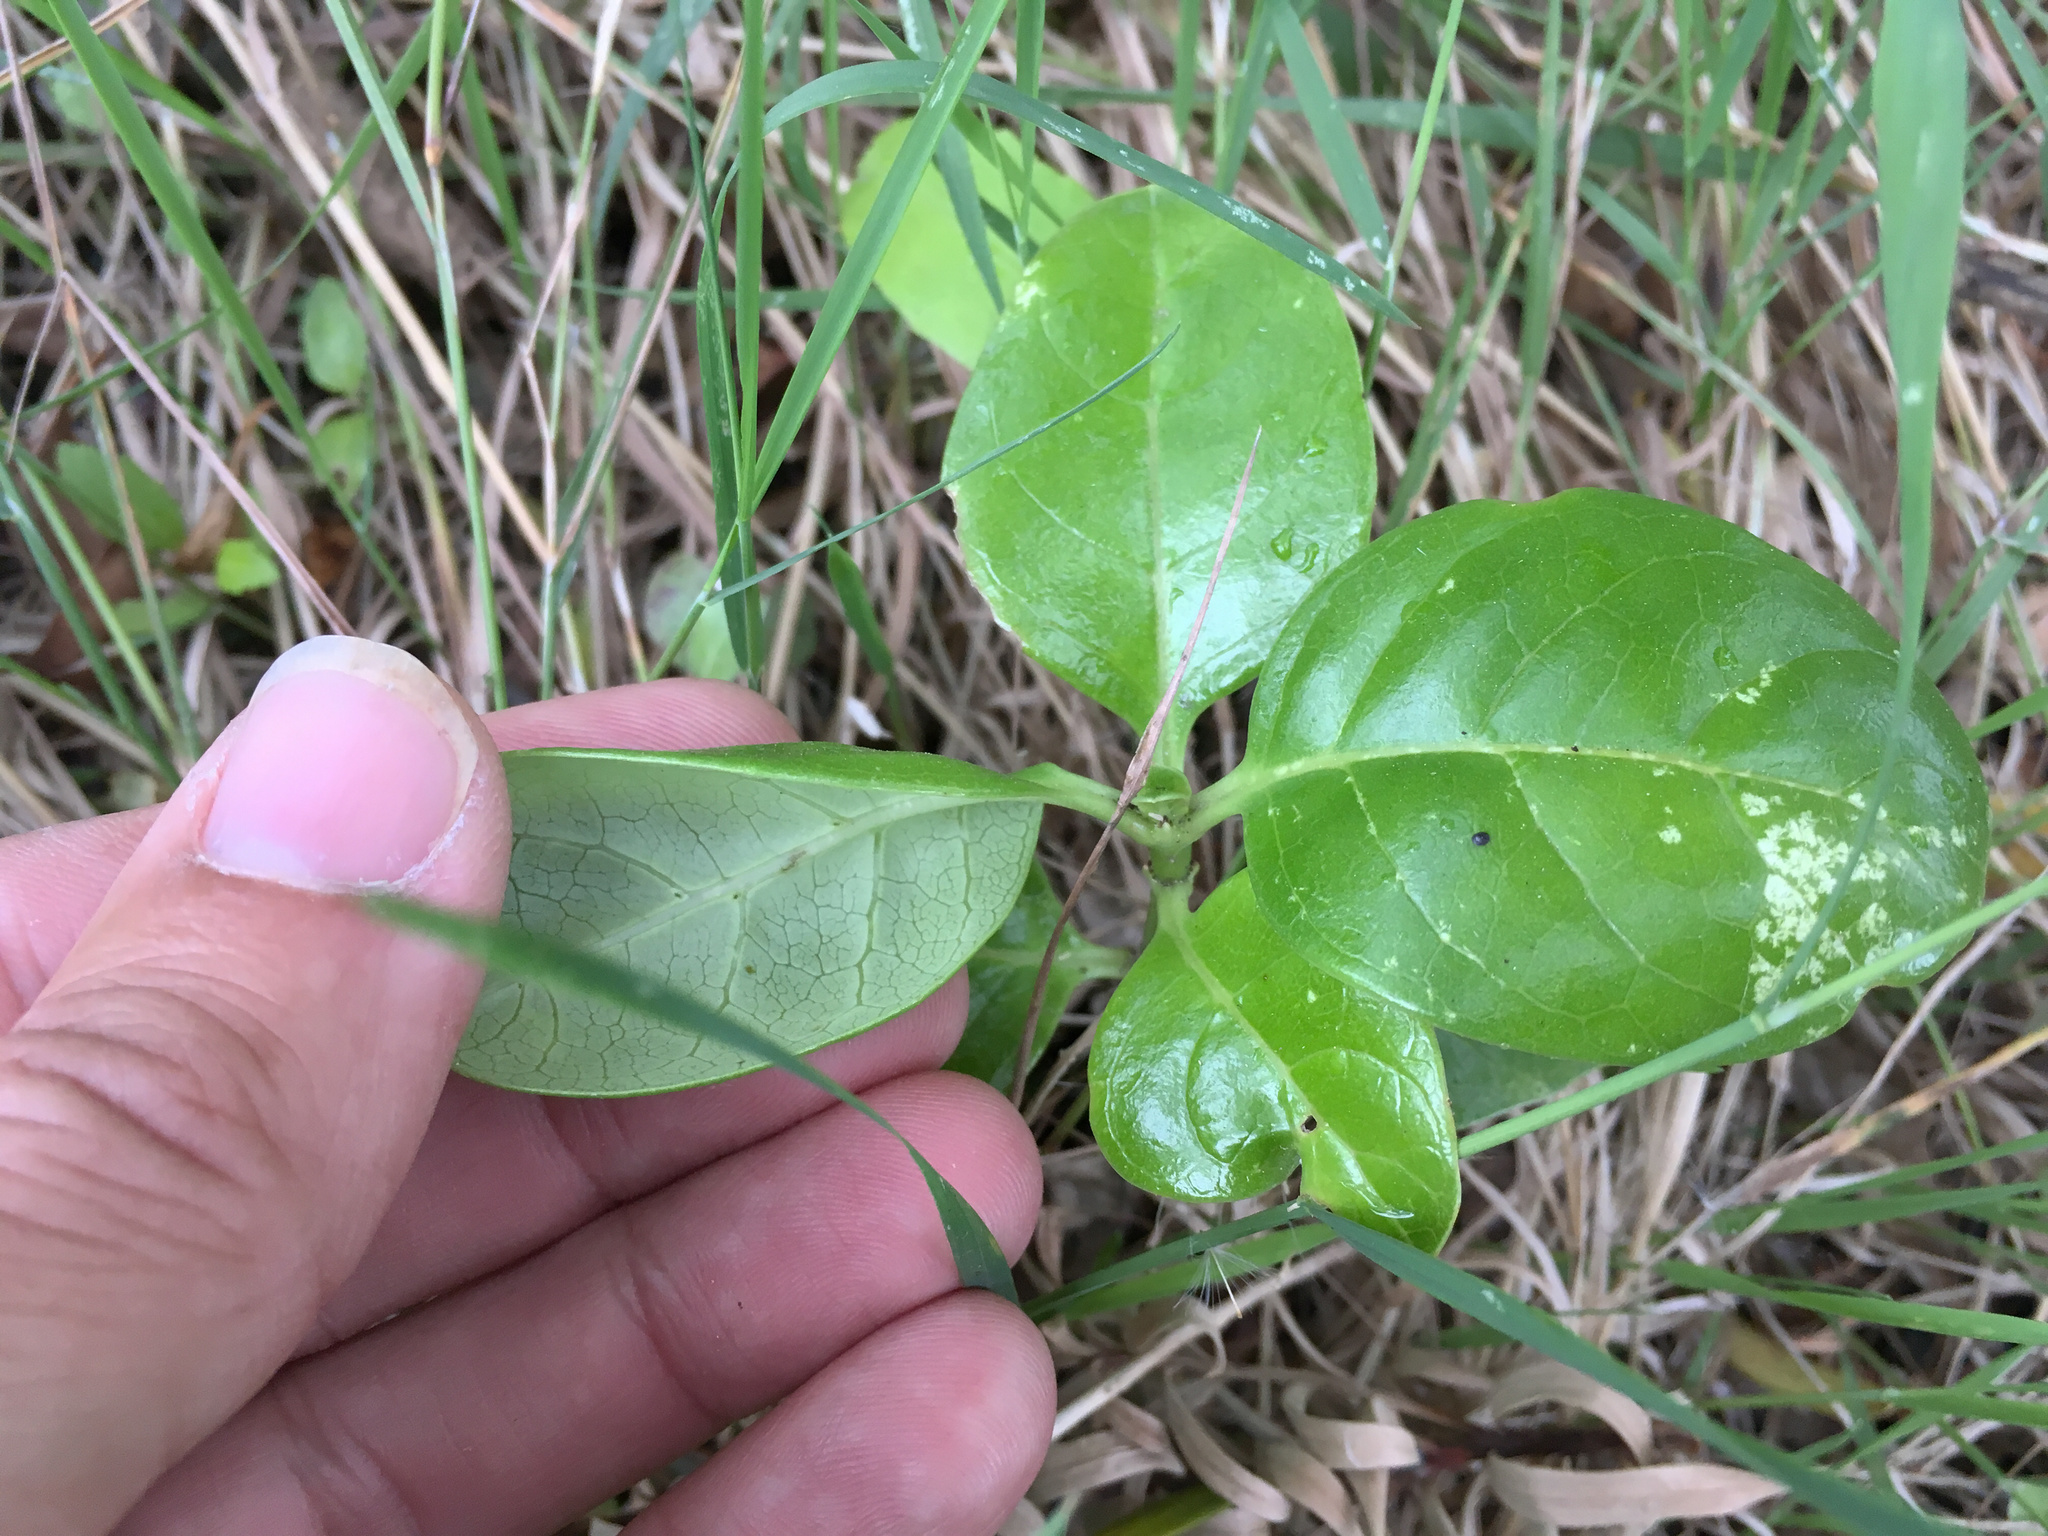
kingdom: Plantae
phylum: Tracheophyta
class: Magnoliopsida
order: Gentianales
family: Rubiaceae
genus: Coprosma
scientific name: Coprosma repens
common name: Tree bedstraw
